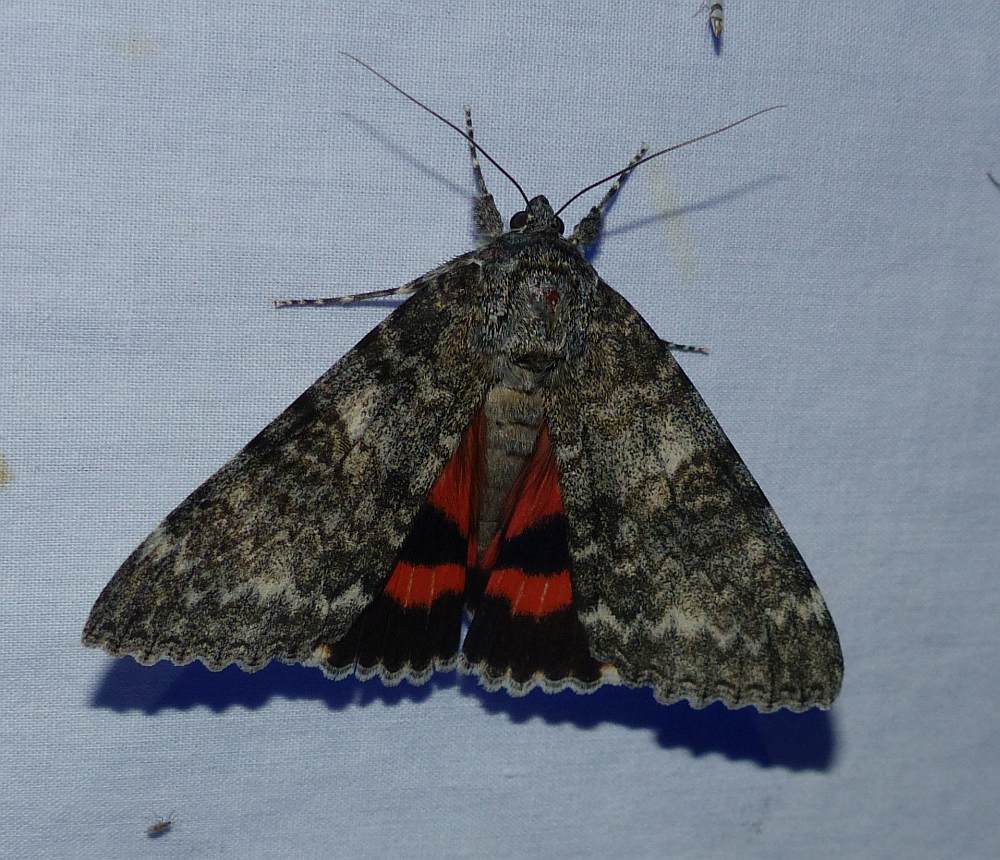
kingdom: Animalia
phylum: Arthropoda
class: Insecta
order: Lepidoptera
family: Erebidae
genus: Catocala
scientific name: Catocala unijuga
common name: Once-married underwing
